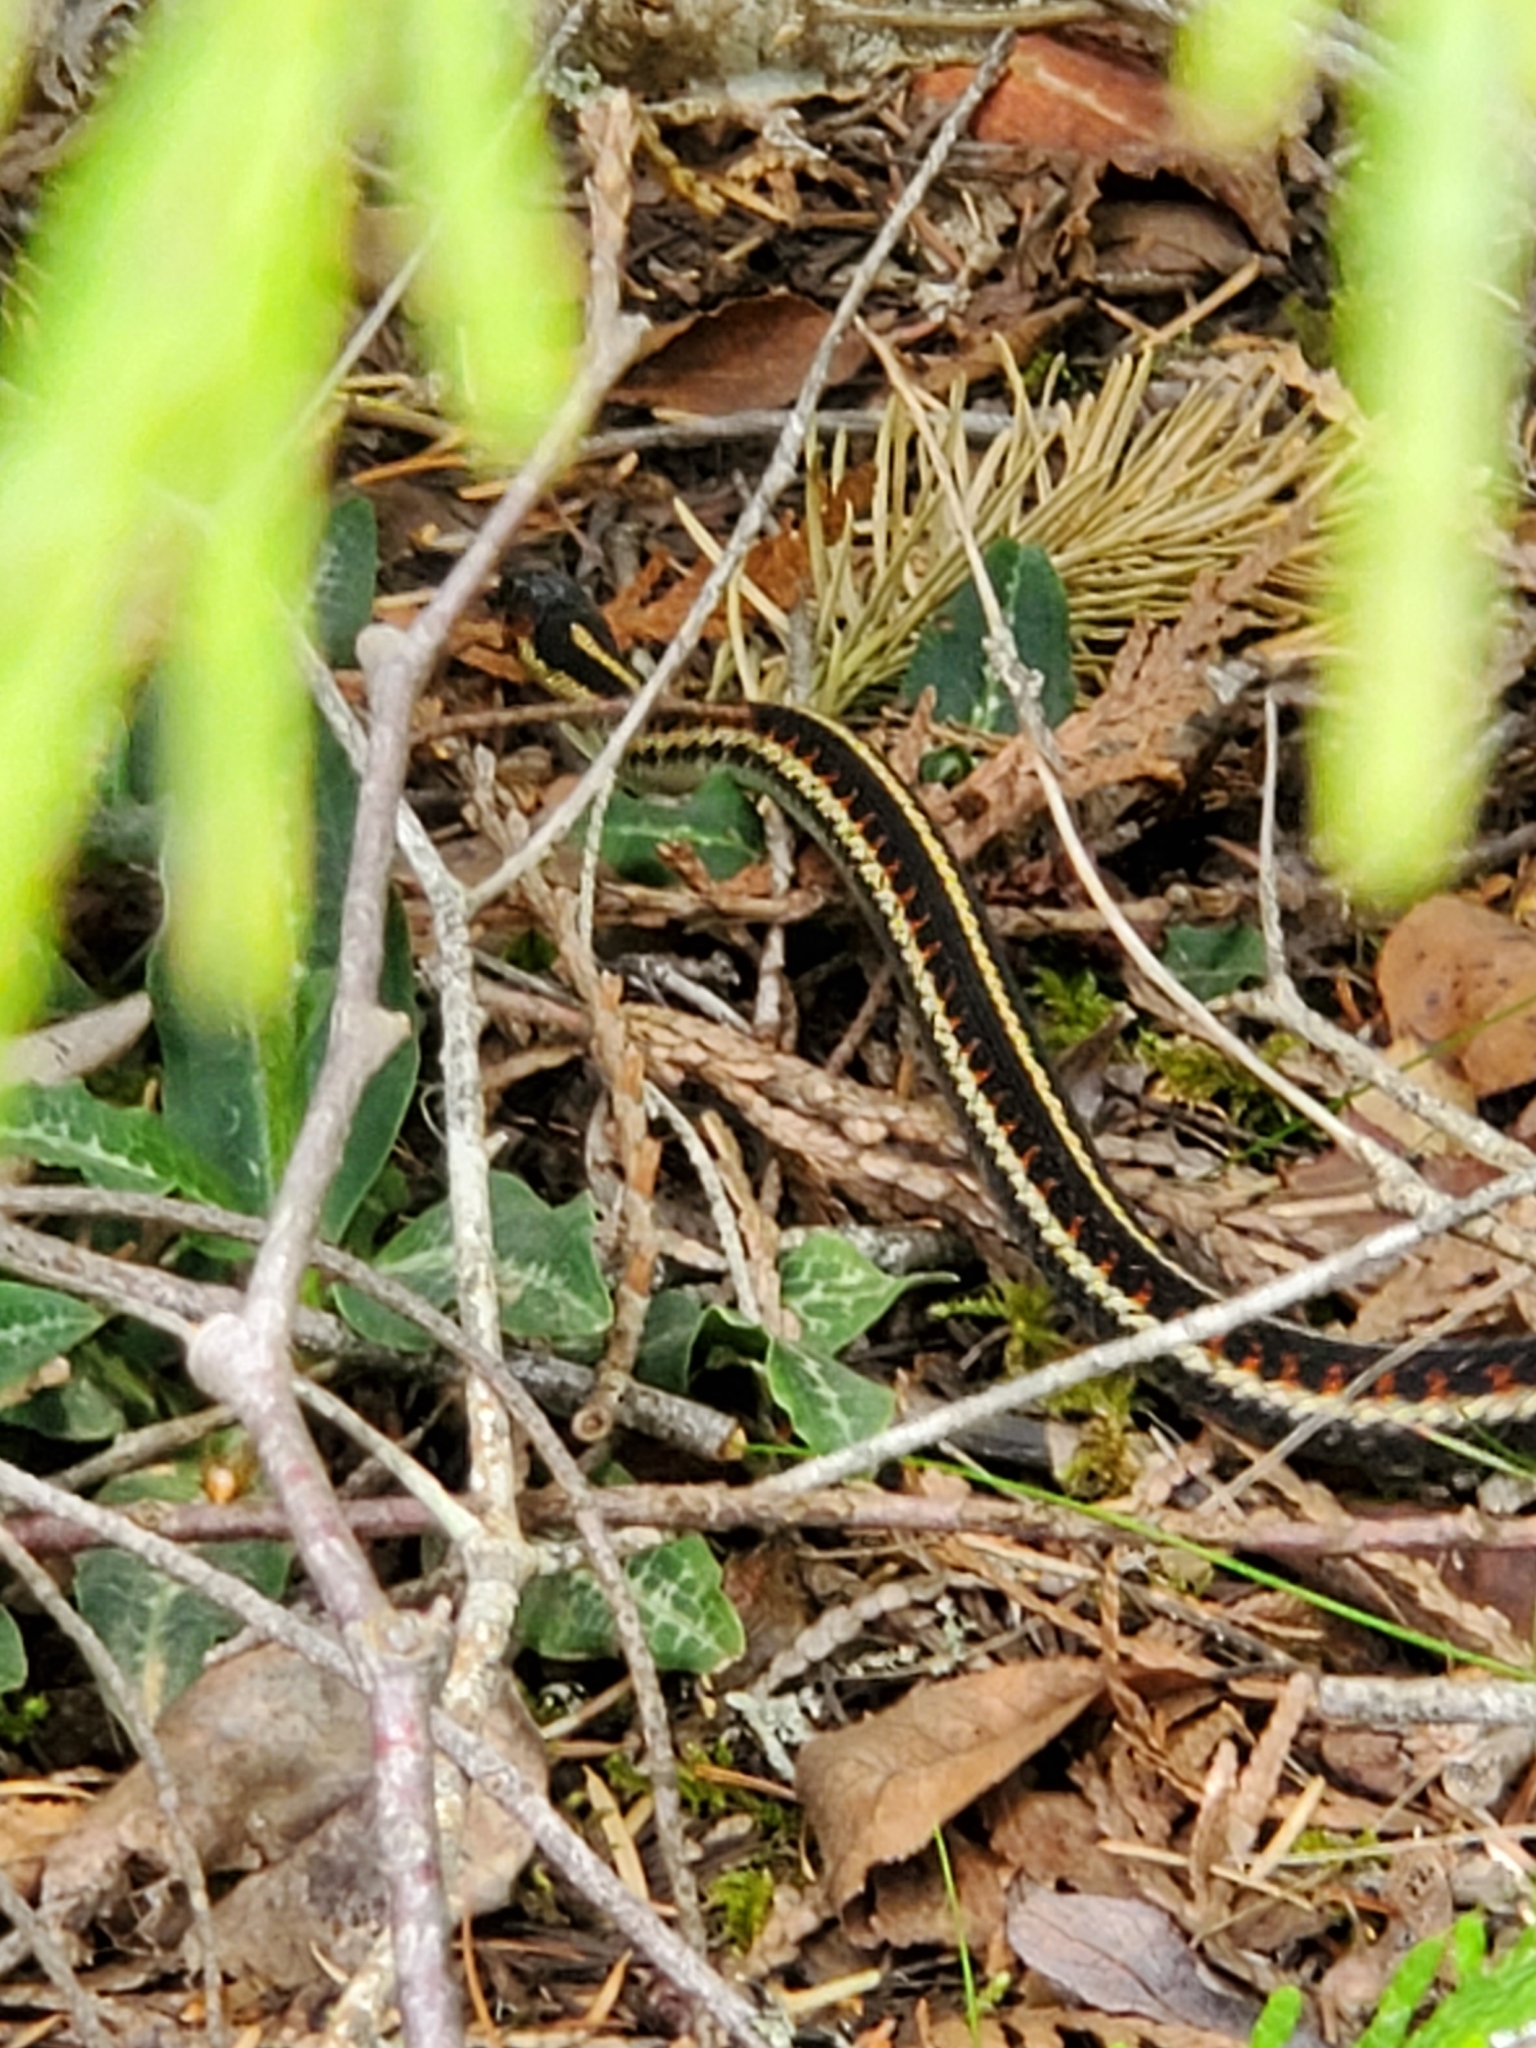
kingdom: Animalia
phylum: Chordata
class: Squamata
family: Colubridae
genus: Thamnophis
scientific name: Thamnophis sirtalis
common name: Common garter snake
